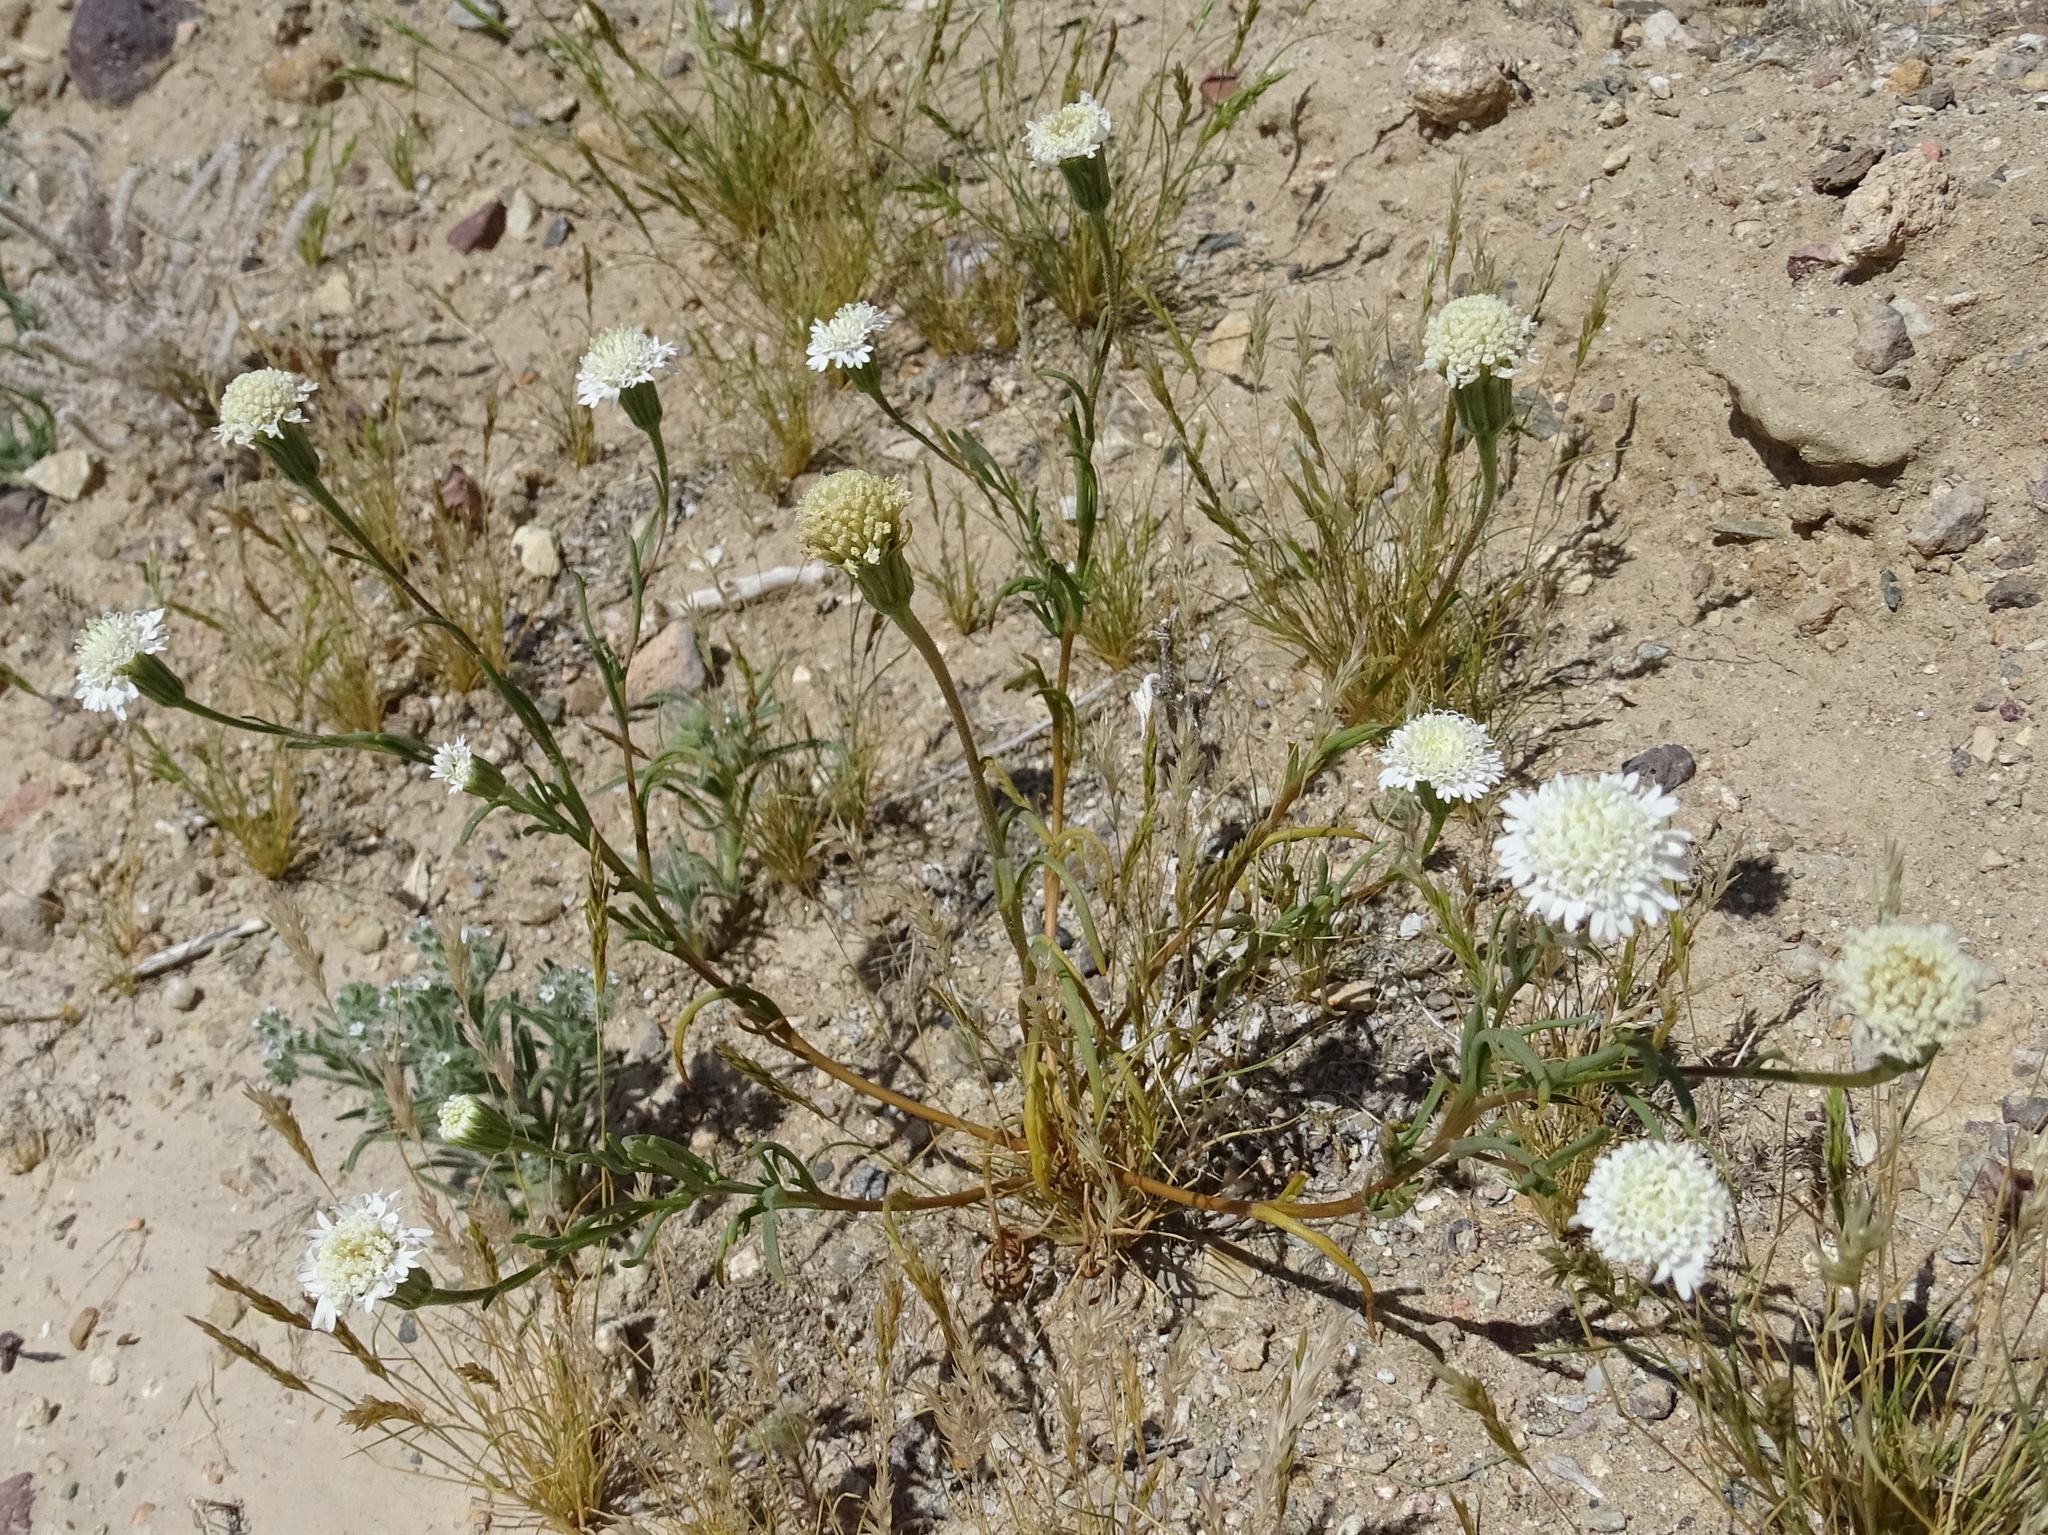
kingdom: Plantae
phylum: Tracheophyta
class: Magnoliopsida
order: Asterales
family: Asteraceae
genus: Chaenactis
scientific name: Chaenactis stevioides
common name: Desert pincushion
